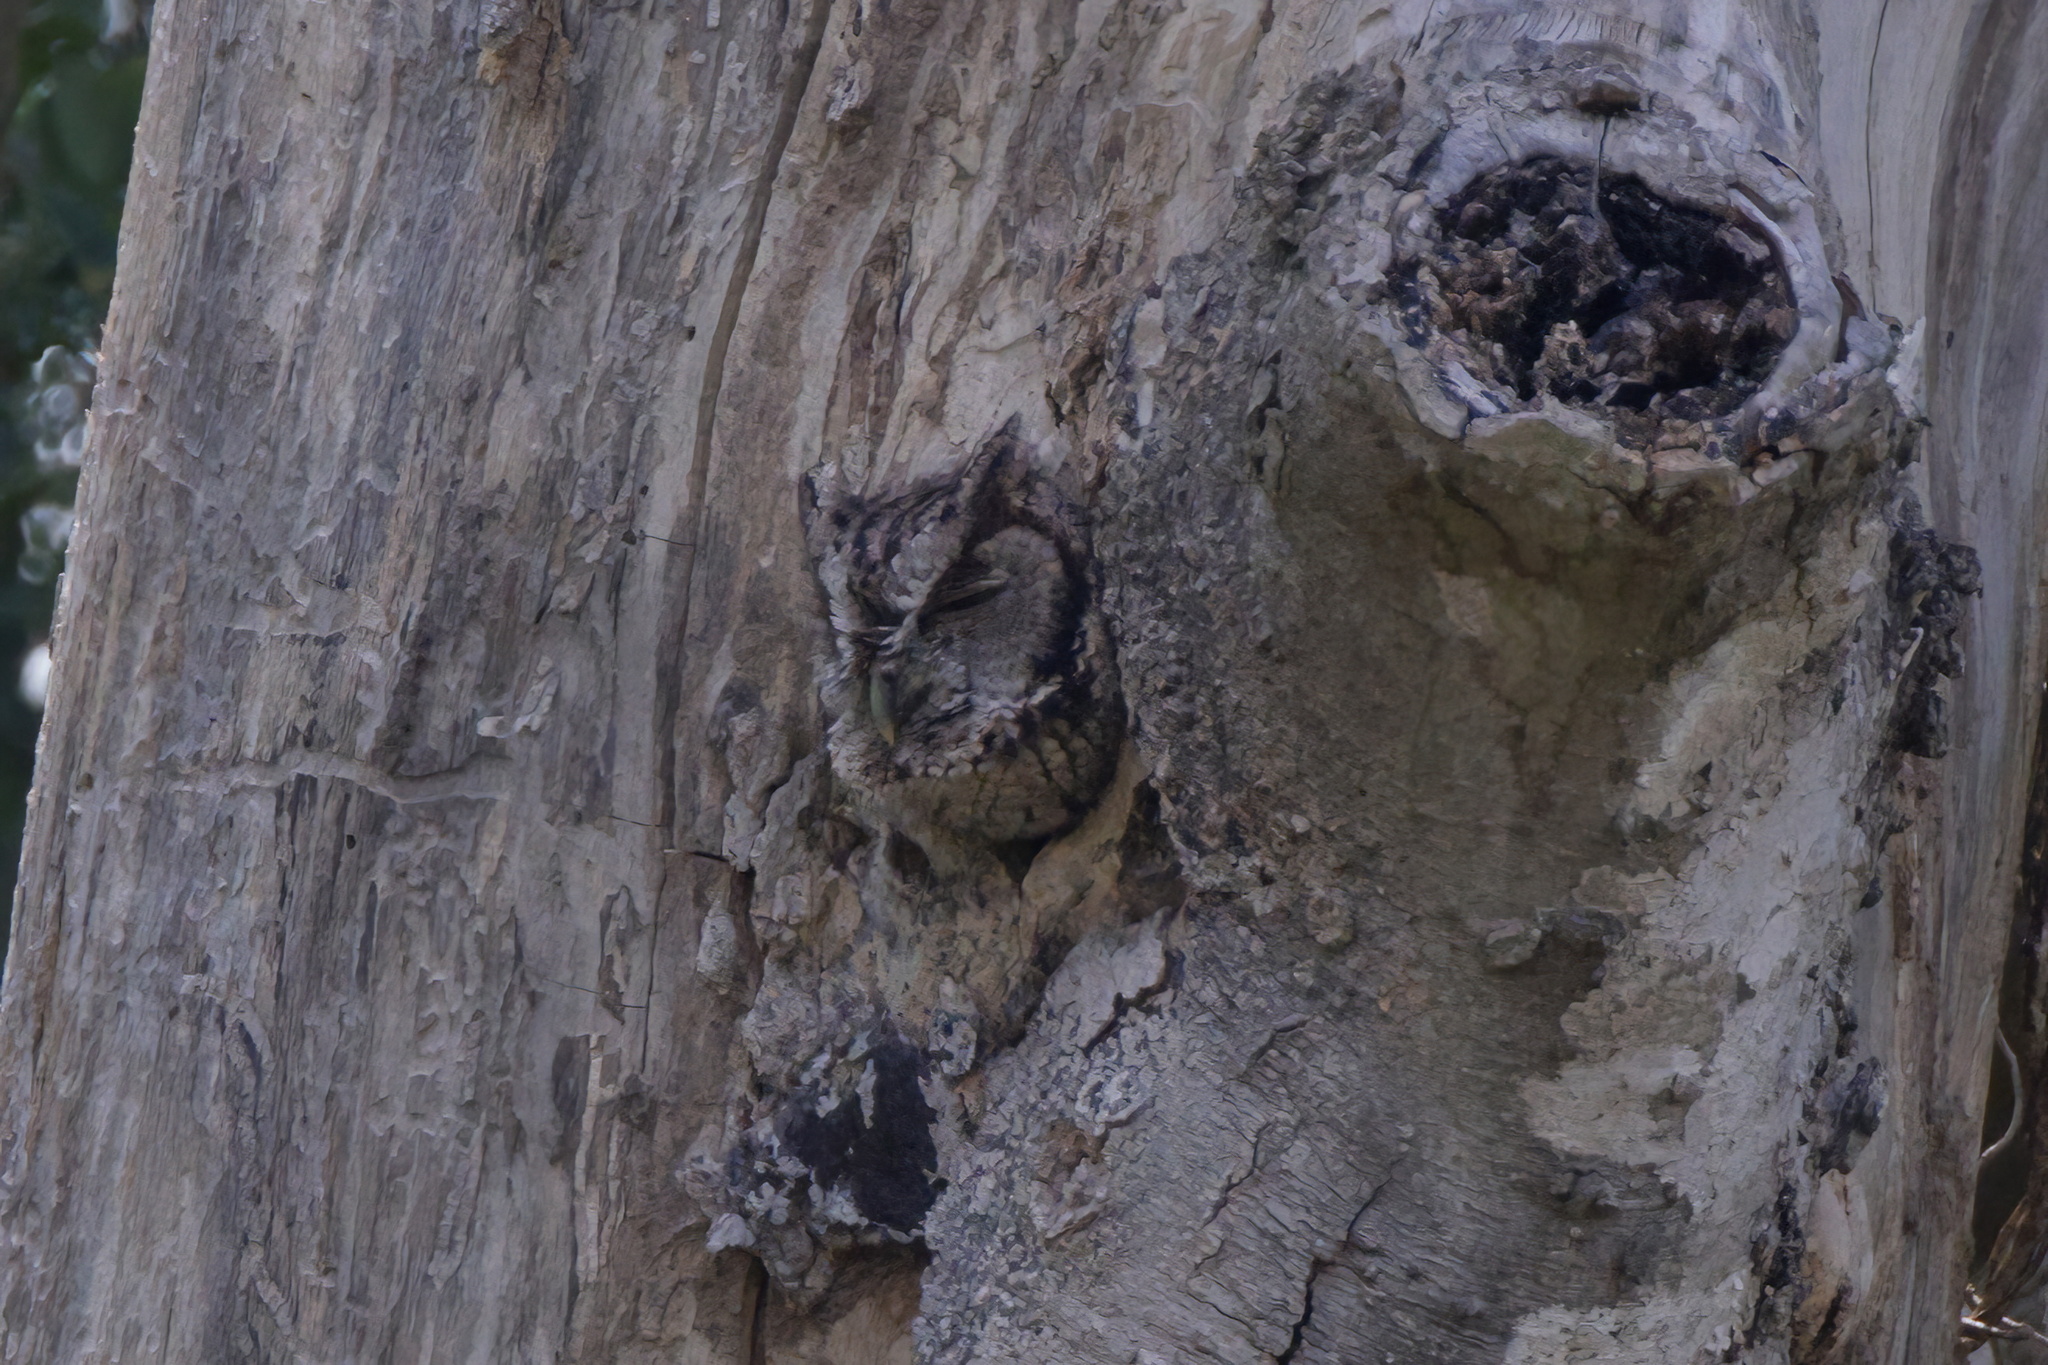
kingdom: Animalia
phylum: Chordata
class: Aves
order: Strigiformes
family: Strigidae
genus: Megascops
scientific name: Megascops asio
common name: Eastern screech-owl
